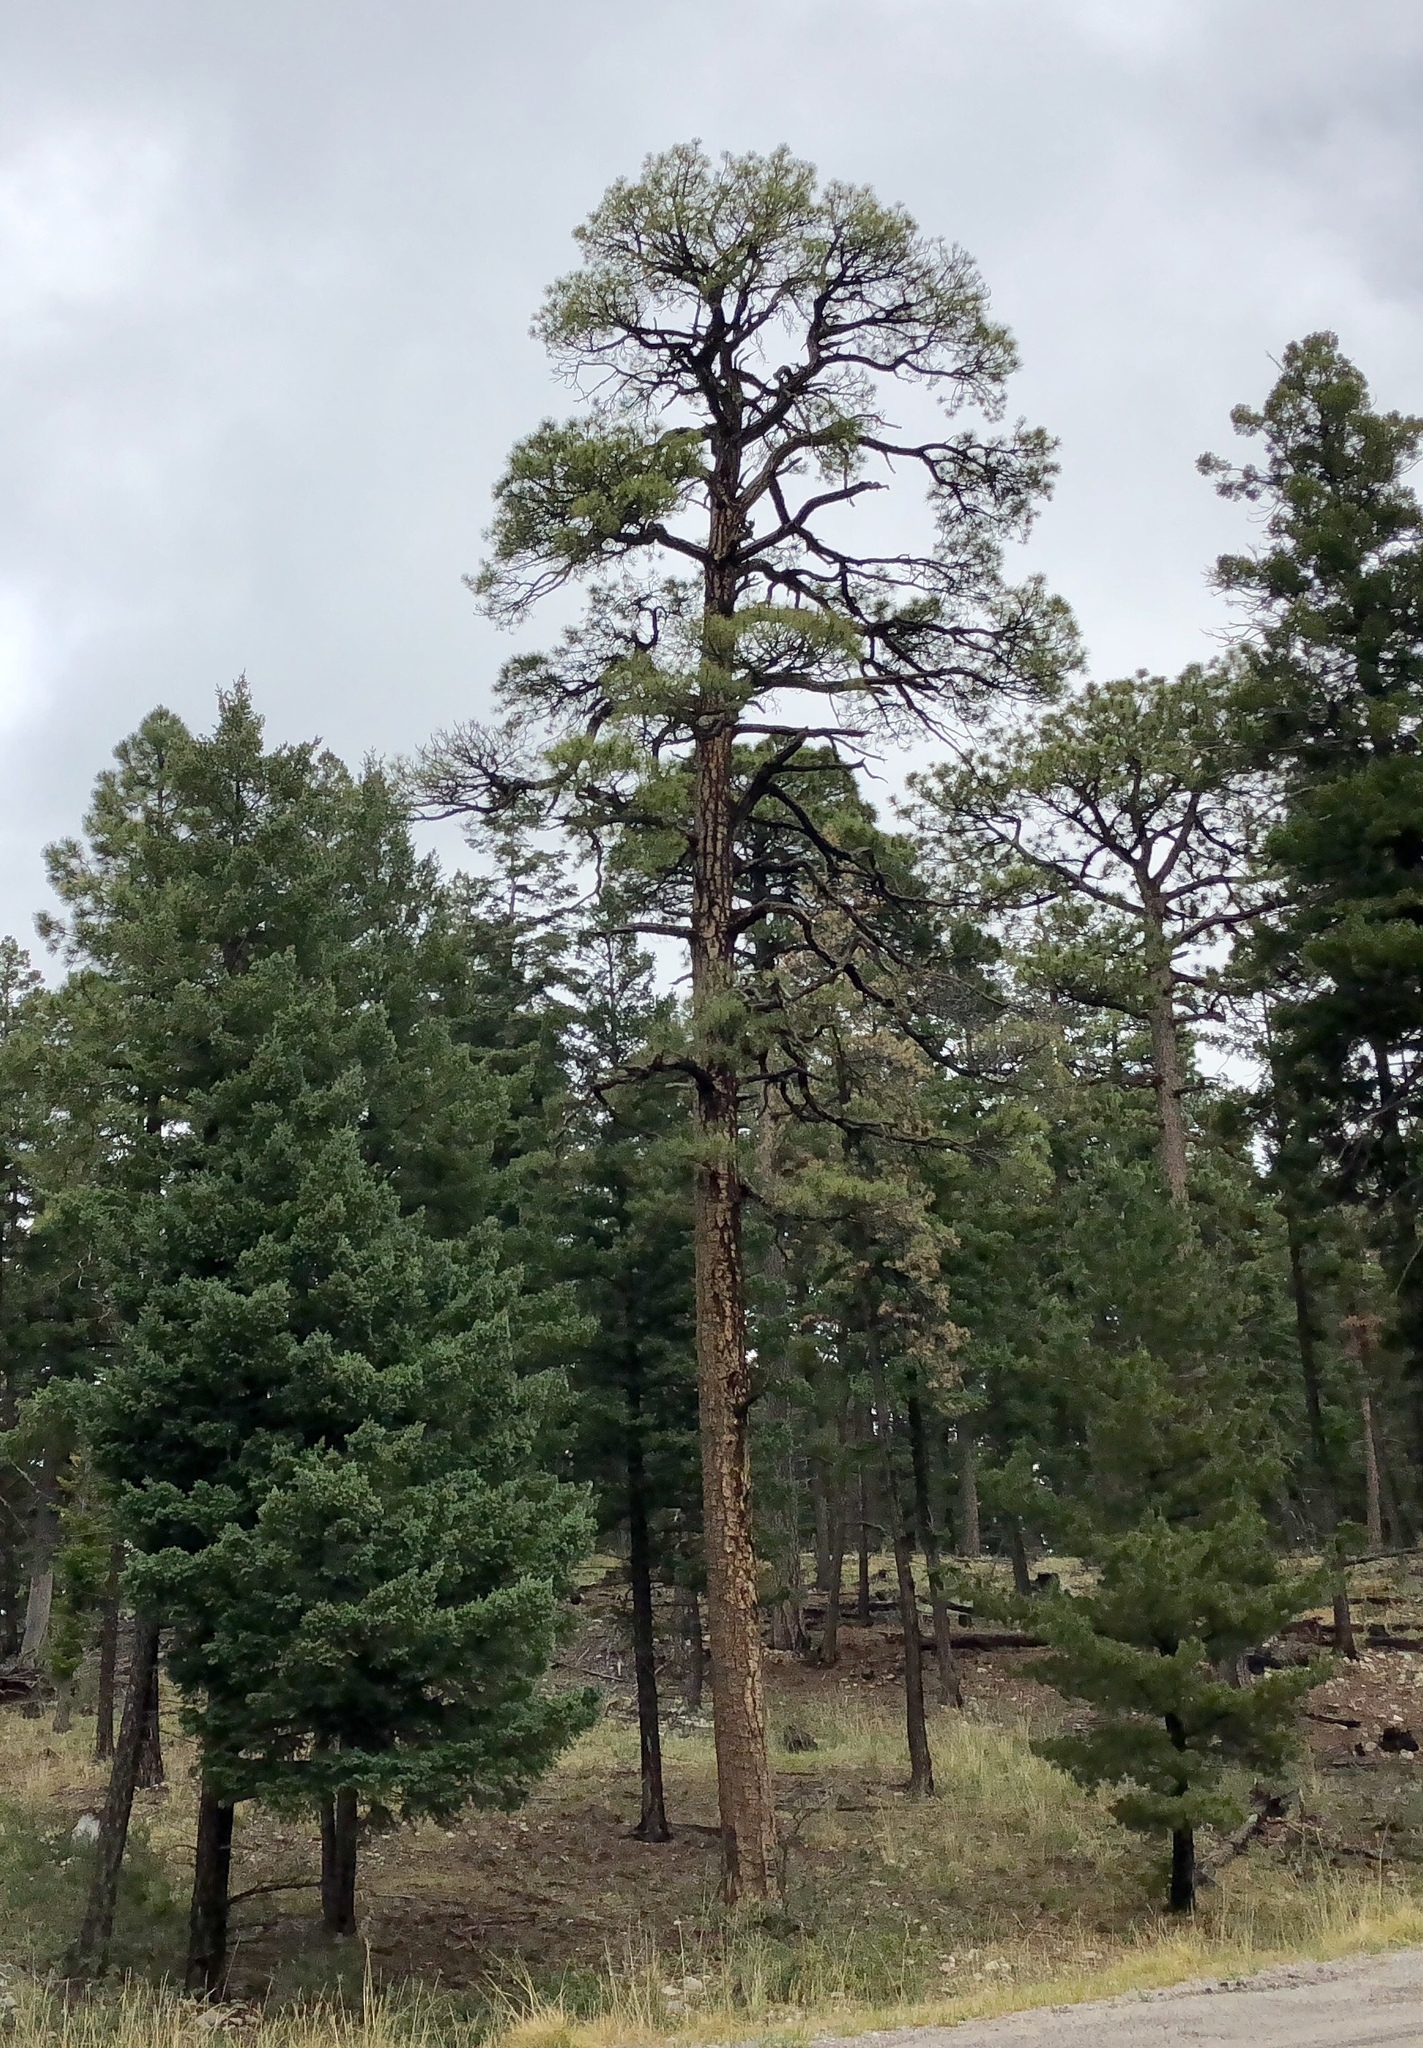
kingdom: Plantae
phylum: Tracheophyta
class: Pinopsida
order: Pinales
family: Pinaceae
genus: Pinus
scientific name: Pinus ponderosa
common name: Western yellow-pine
